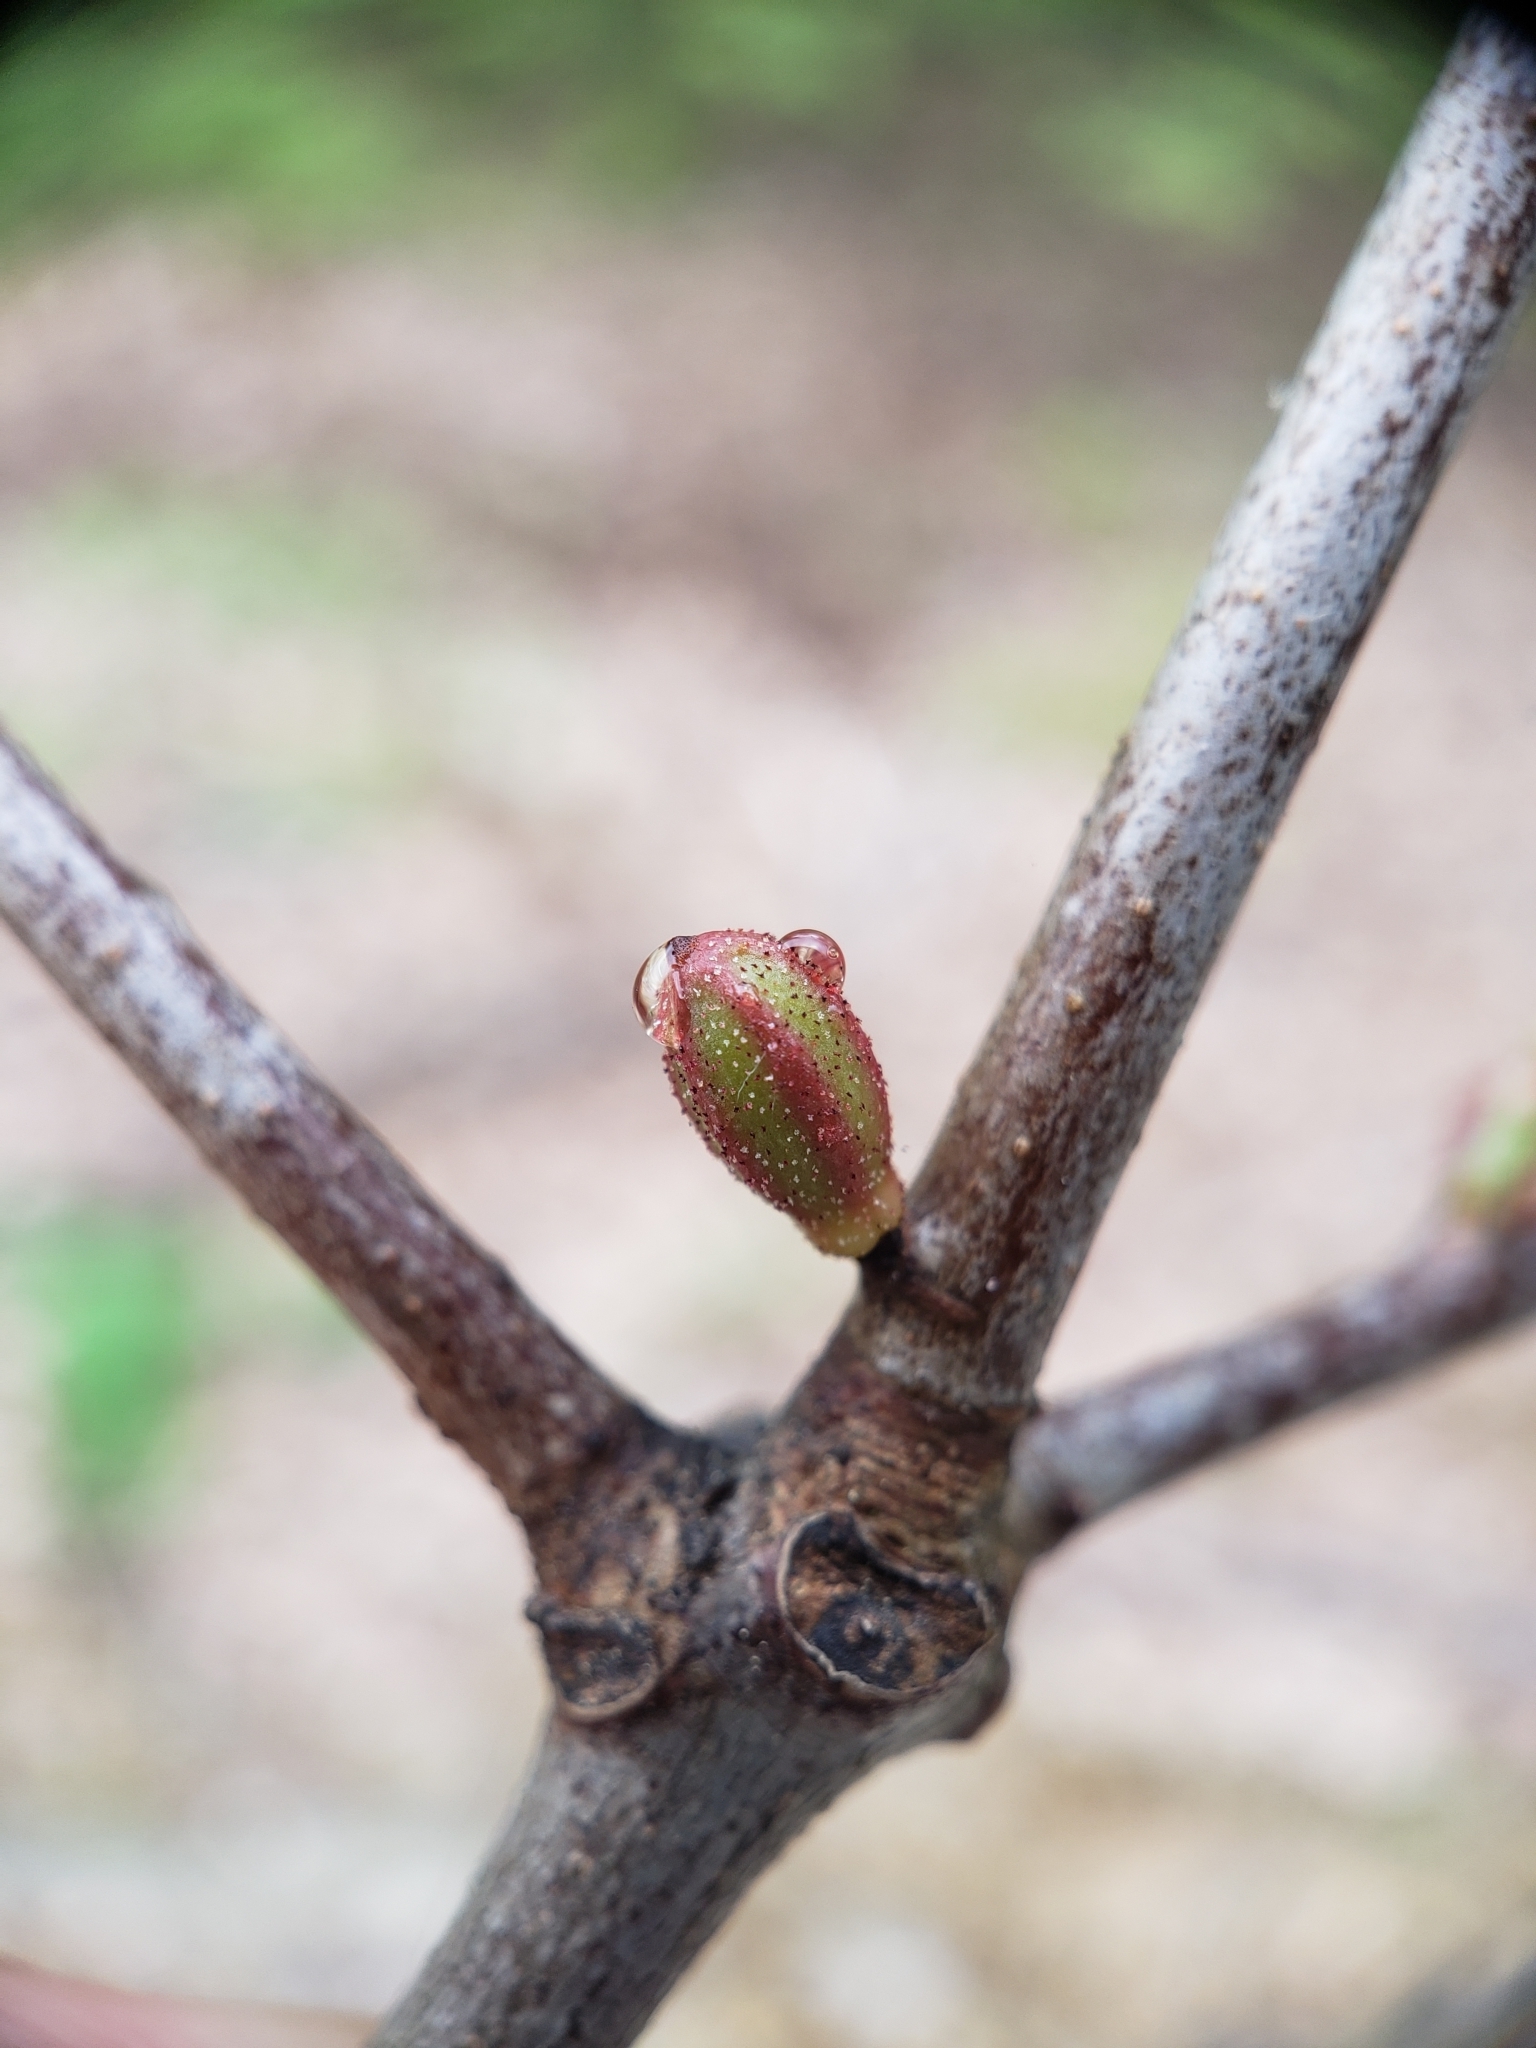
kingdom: Animalia
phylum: Arthropoda
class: Insecta
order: Hymenoptera
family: Cynipidae
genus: Callirhytis
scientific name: Callirhytis
